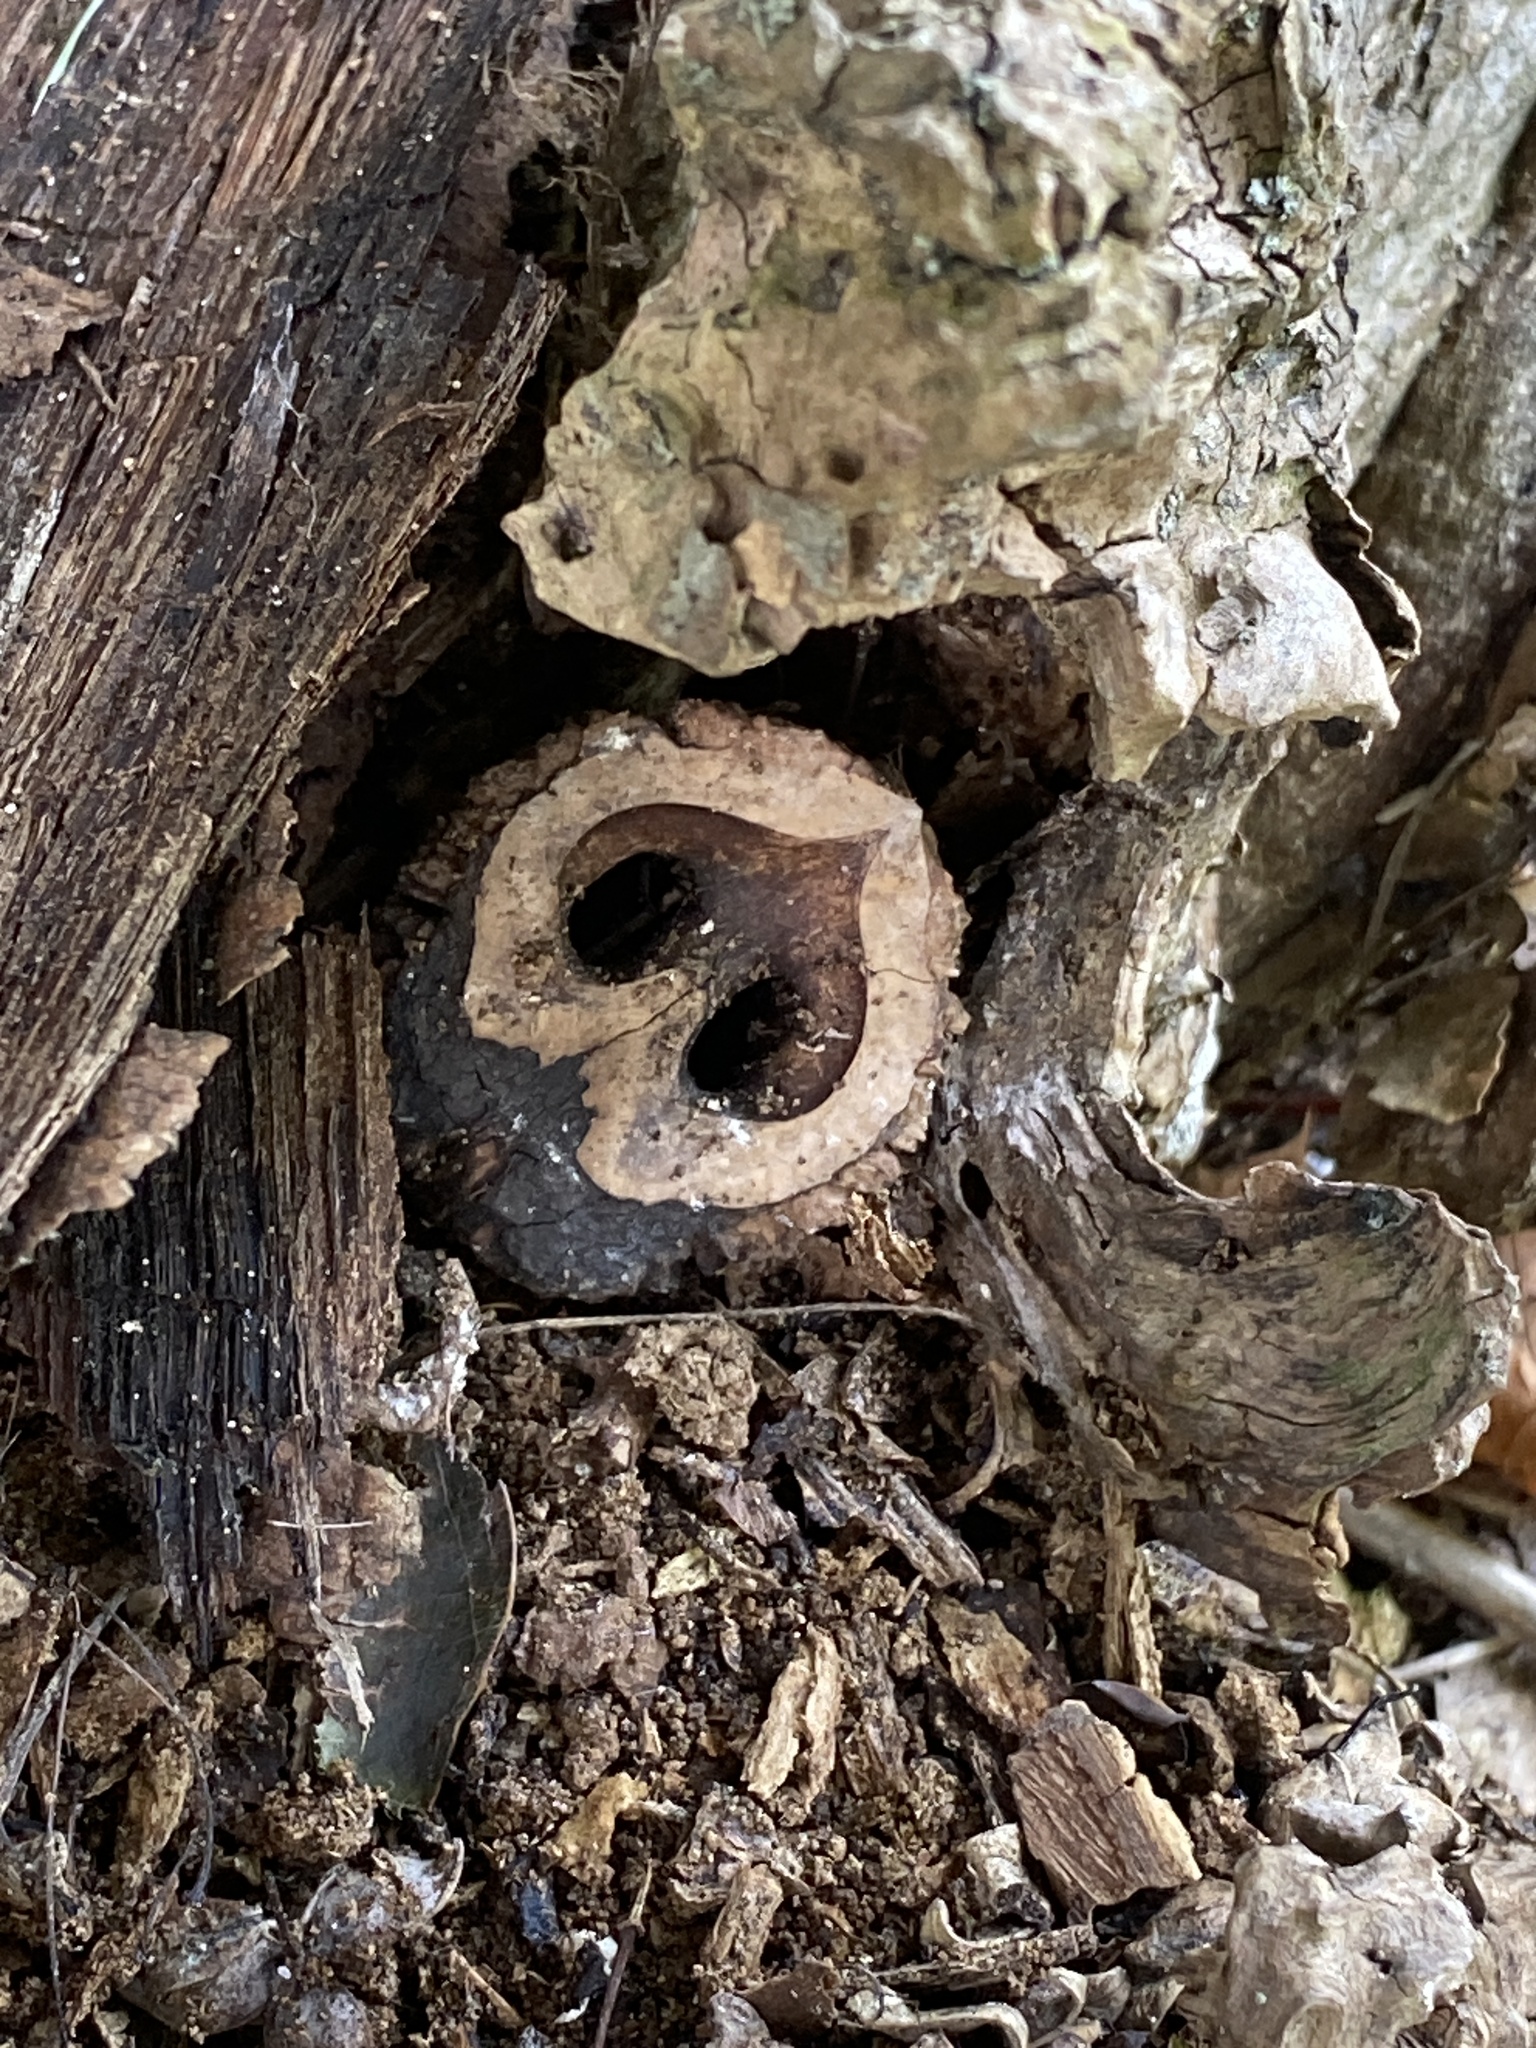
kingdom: Plantae
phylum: Tracheophyta
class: Magnoliopsida
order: Fagales
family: Juglandaceae
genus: Juglans
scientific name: Juglans nigra
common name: Black walnut
